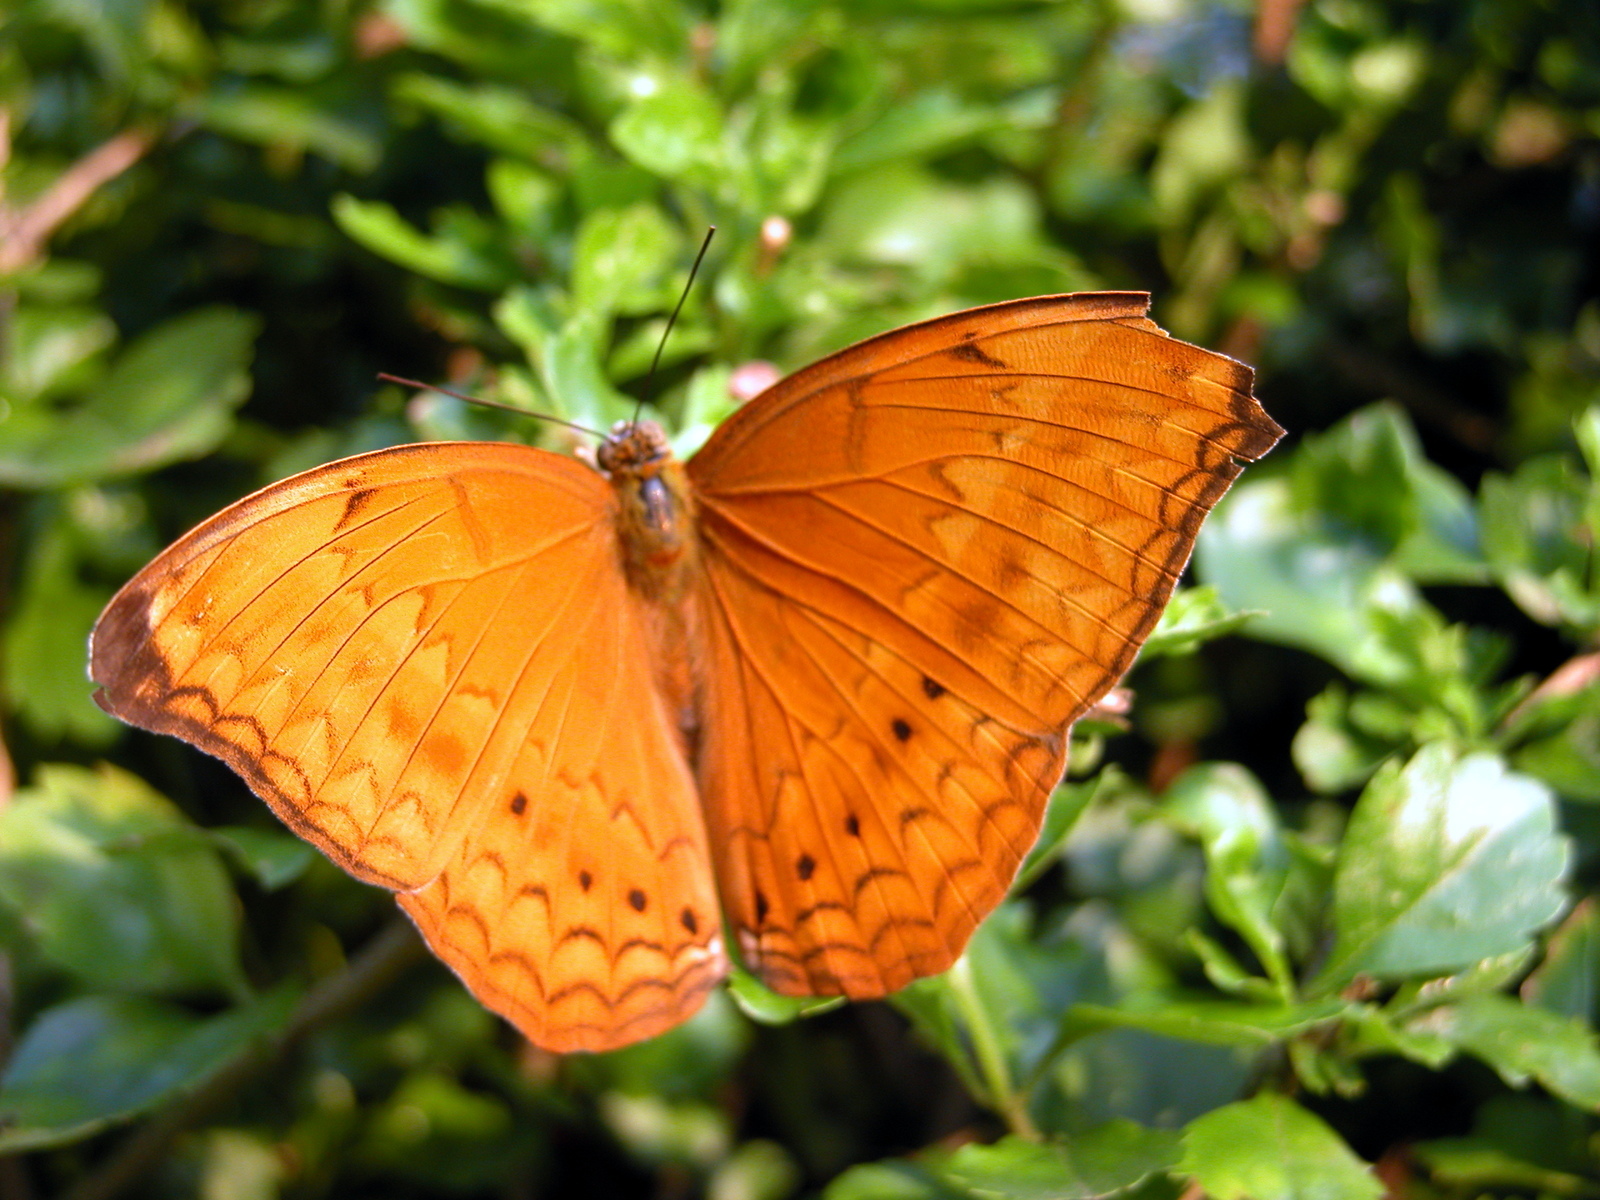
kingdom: Animalia
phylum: Arthropoda
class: Insecta
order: Lepidoptera
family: Nymphalidae
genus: Cirrochroa
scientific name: Cirrochroa aoris
